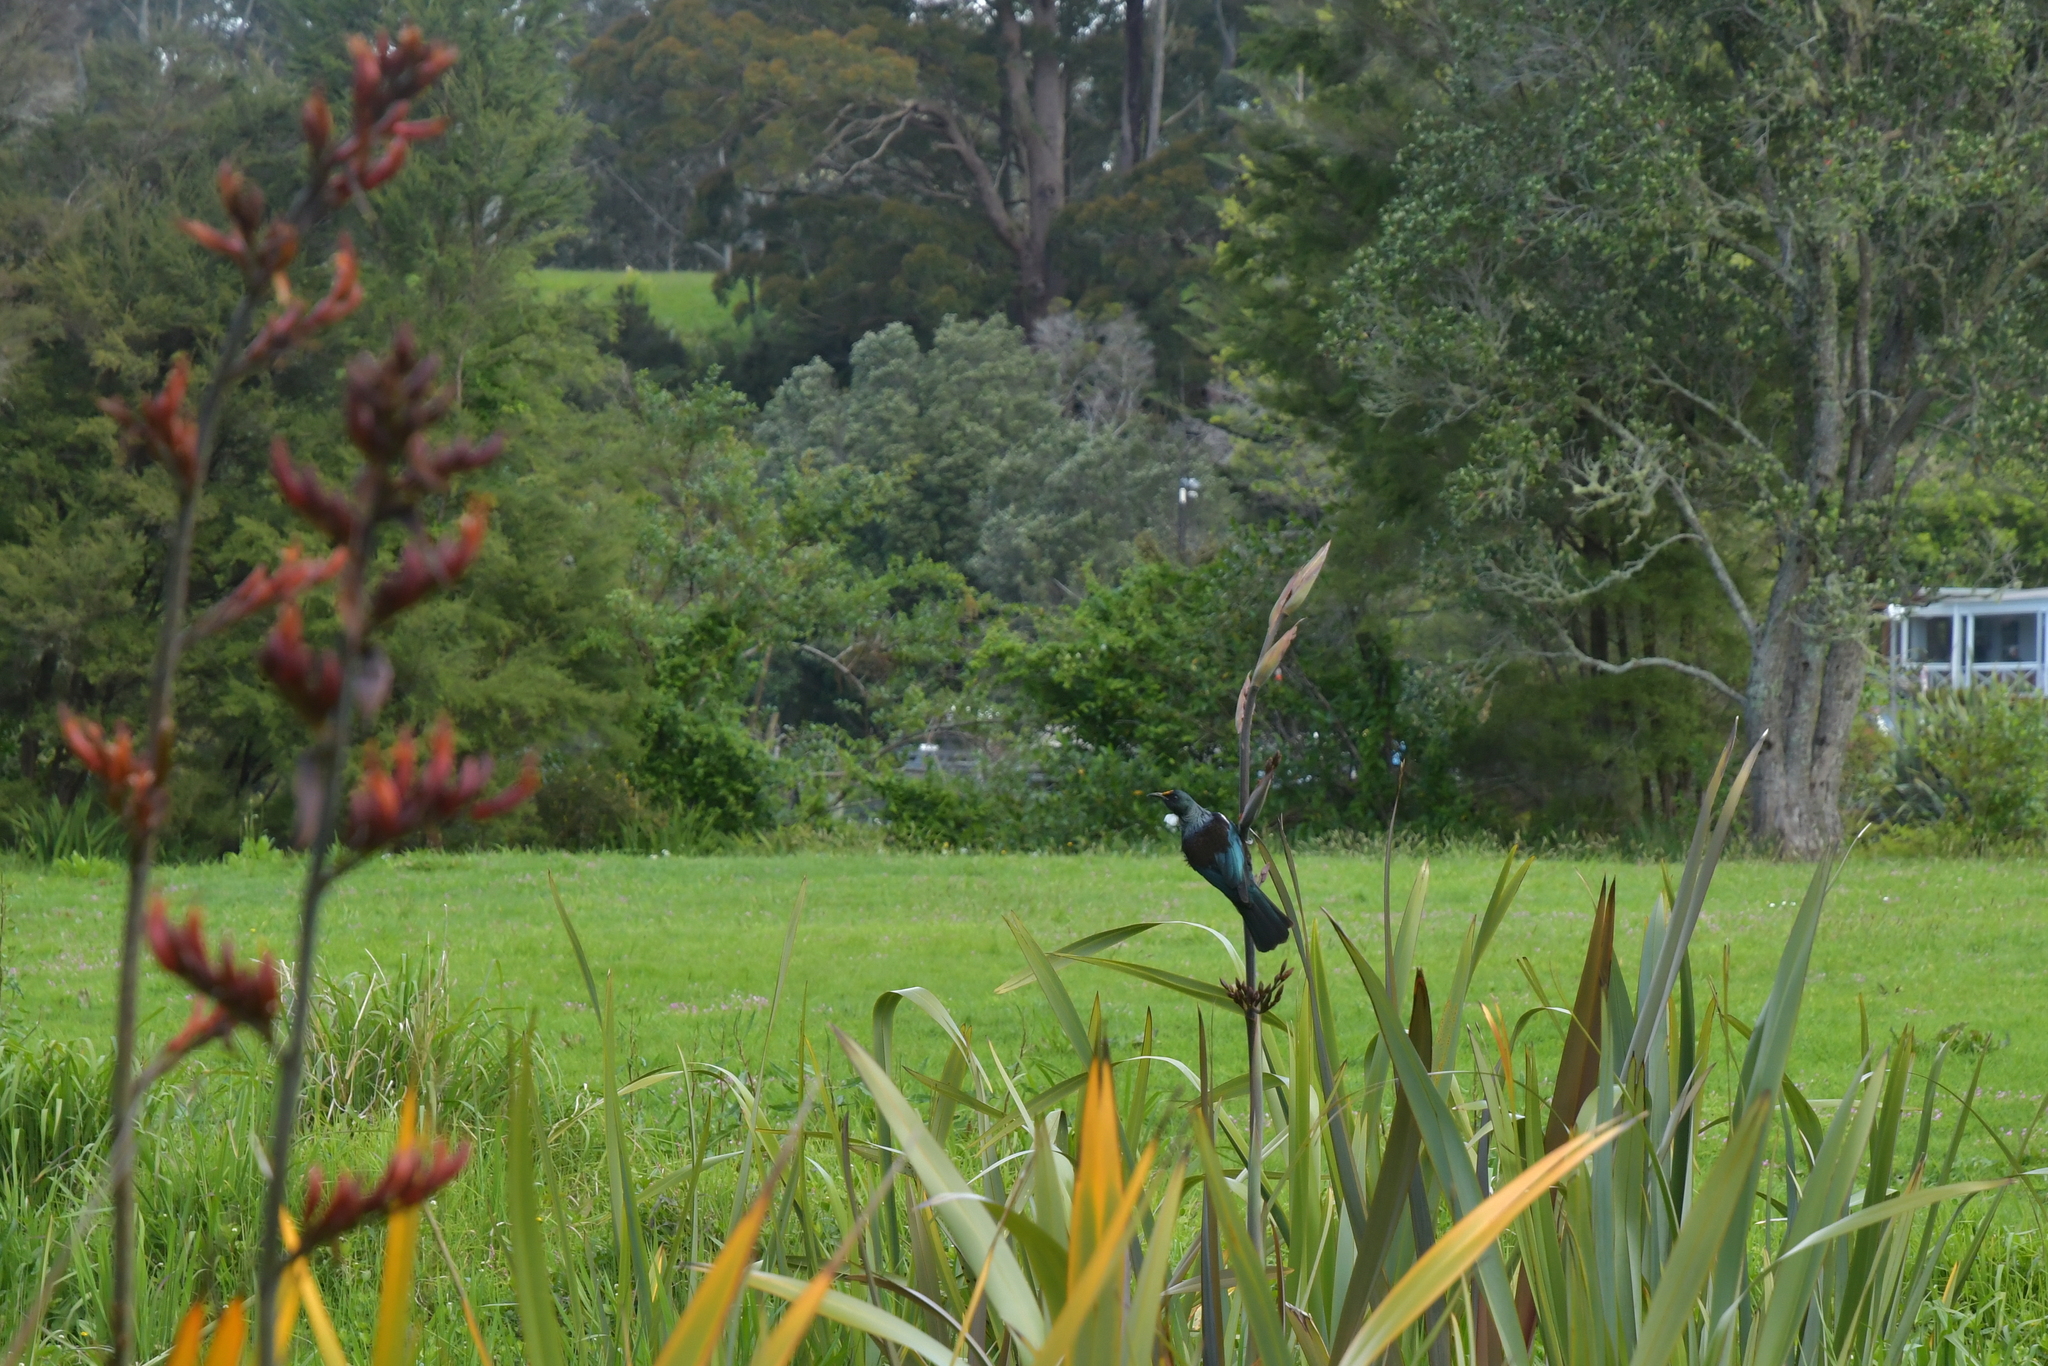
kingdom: Animalia
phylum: Chordata
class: Aves
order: Passeriformes
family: Meliphagidae
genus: Prosthemadera
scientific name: Prosthemadera novaeseelandiae
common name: Tui
